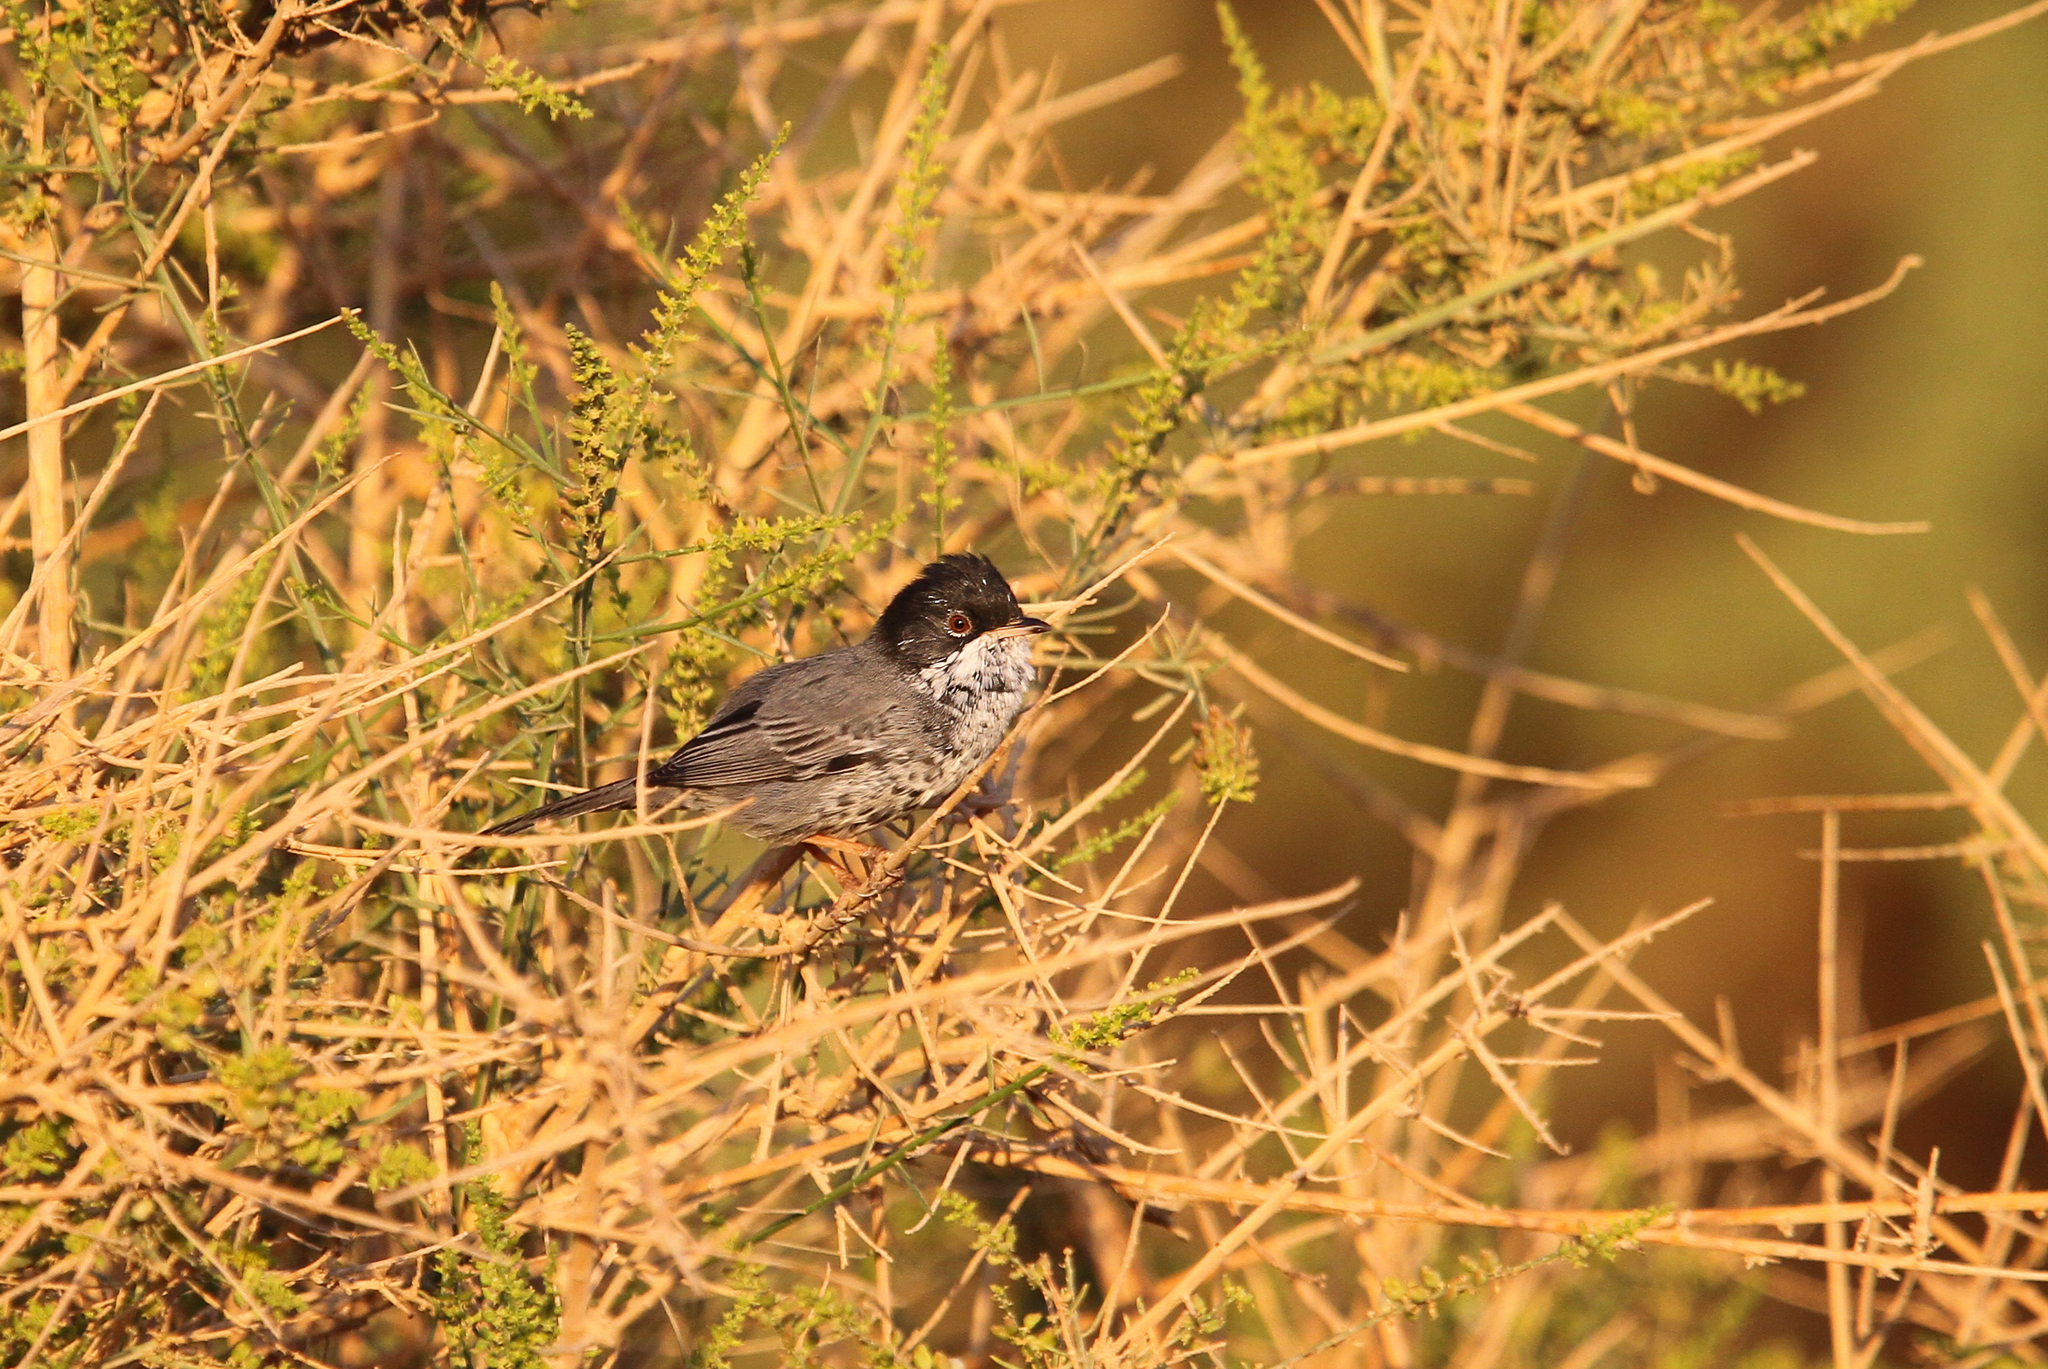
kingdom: Animalia
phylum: Chordata
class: Aves
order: Passeriformes
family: Sylviidae
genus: Sylvia
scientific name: Sylvia melanothorax
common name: Cyprus warbler
